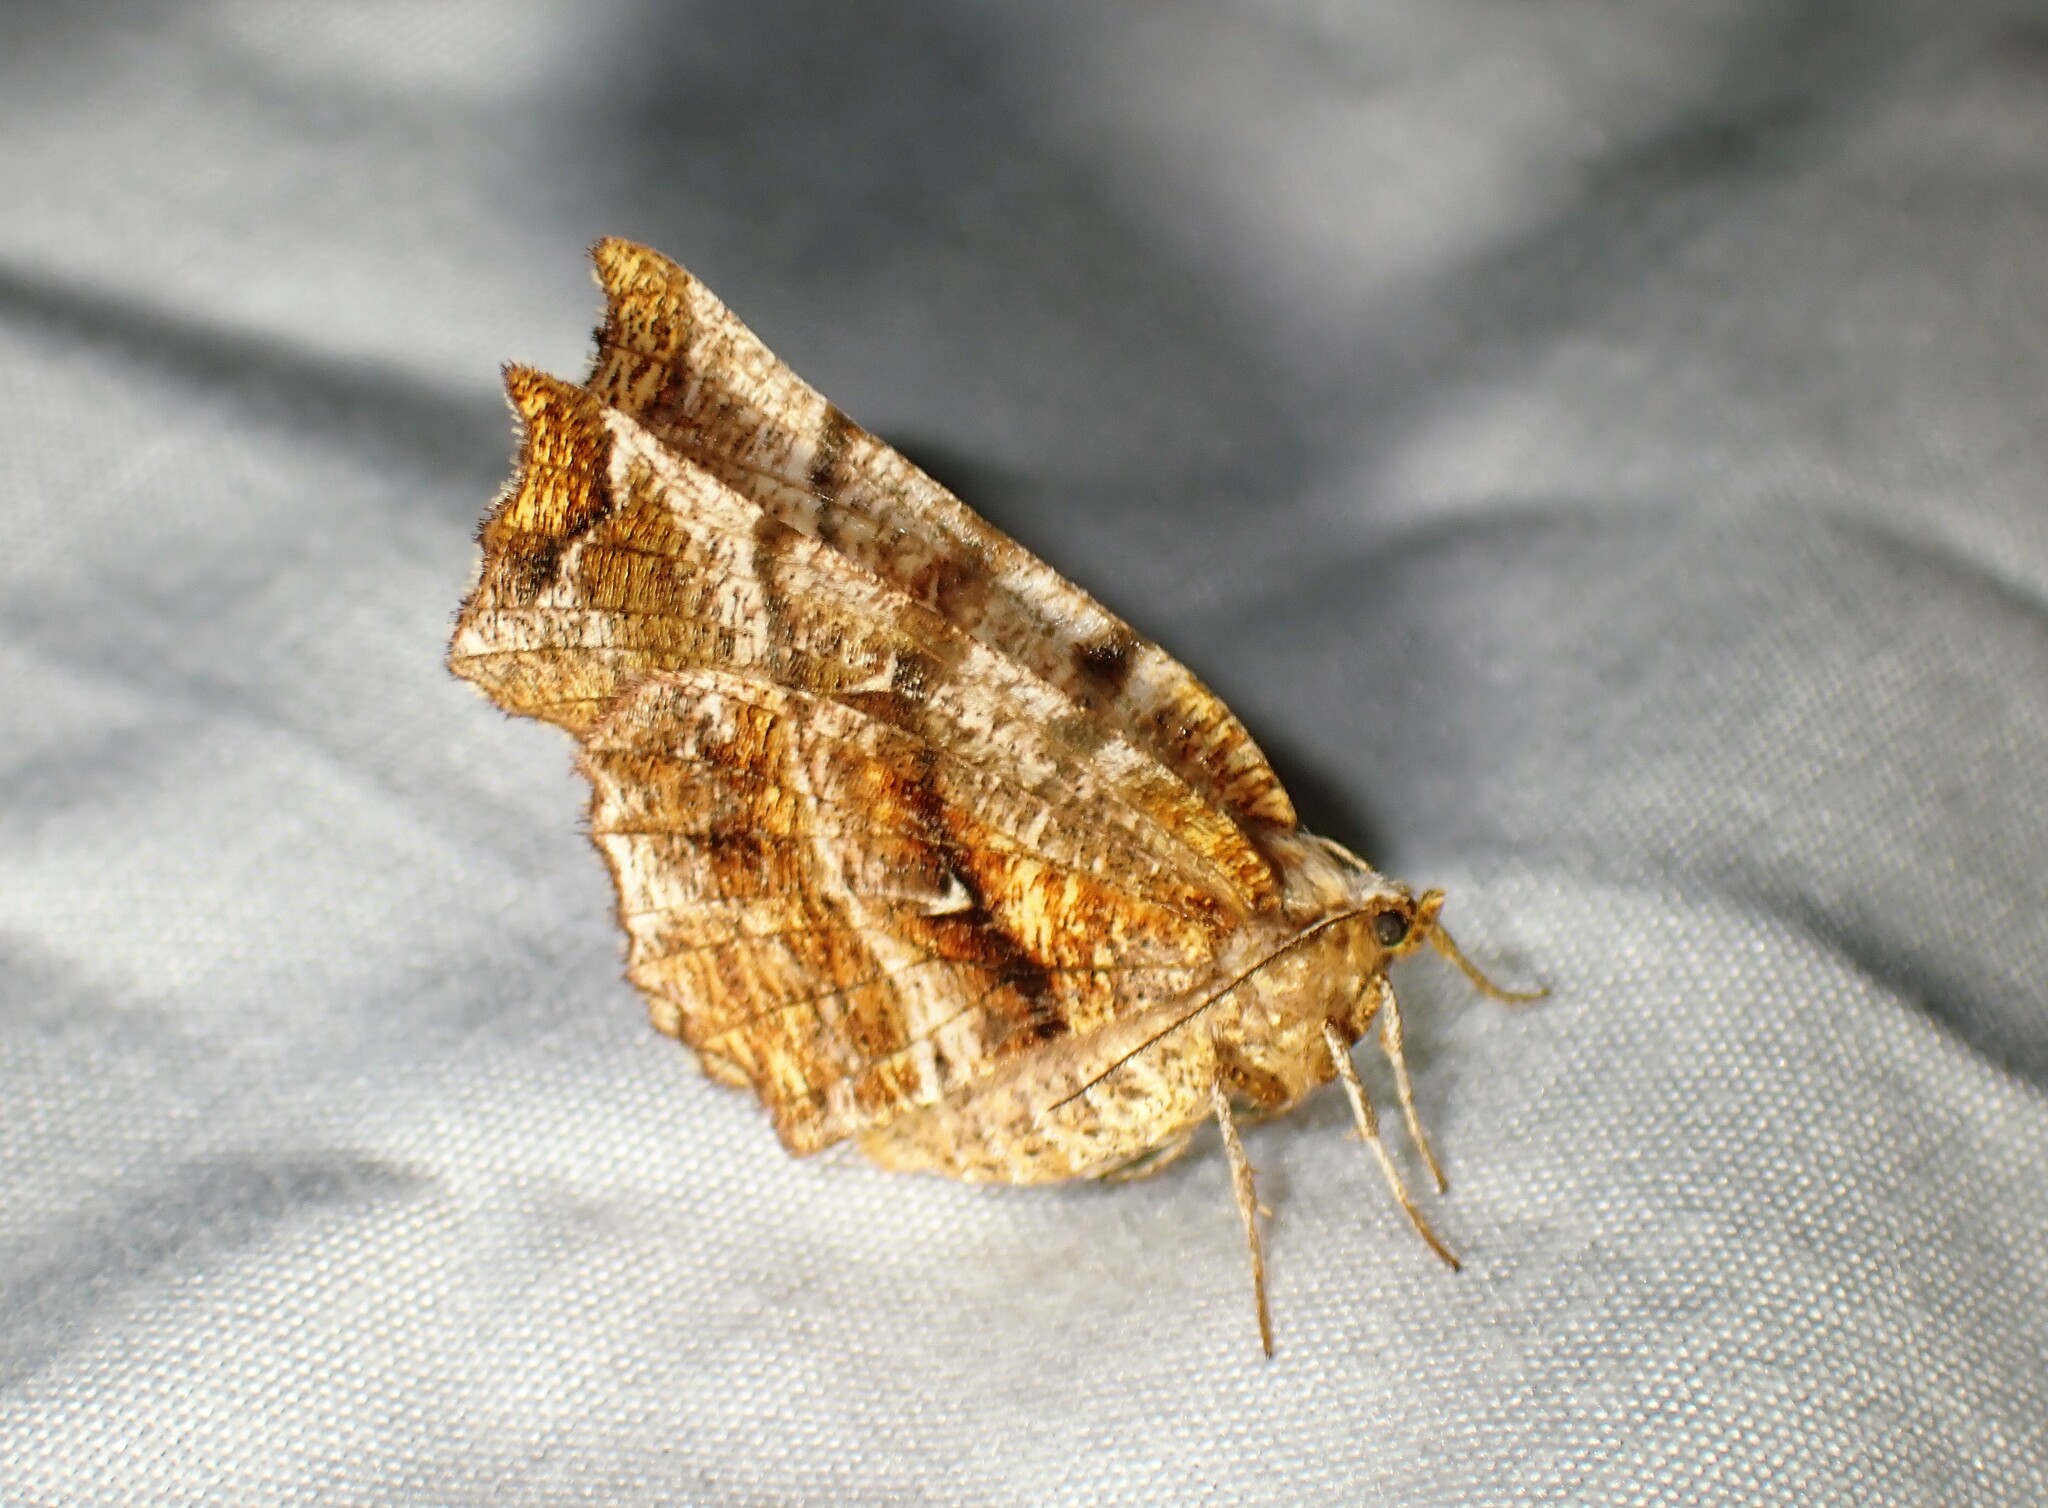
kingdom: Animalia
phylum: Arthropoda
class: Insecta
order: Lepidoptera
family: Geometridae
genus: Selenia
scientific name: Selenia alciphearia
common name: Brown-tipped thorn
